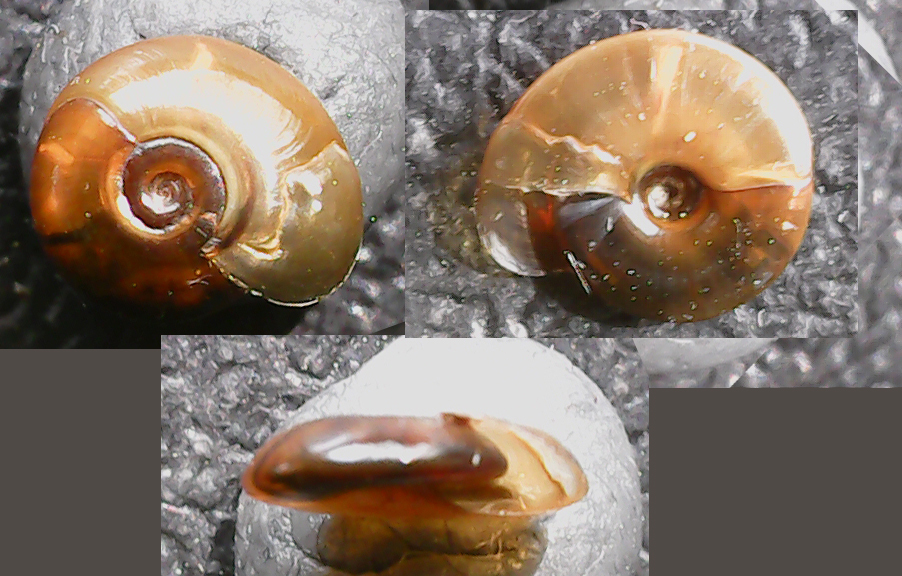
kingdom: Animalia
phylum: Mollusca
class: Gastropoda
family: Planorbidae
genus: Segmentina
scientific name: Segmentina nitida
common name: The shining ram's-horn
